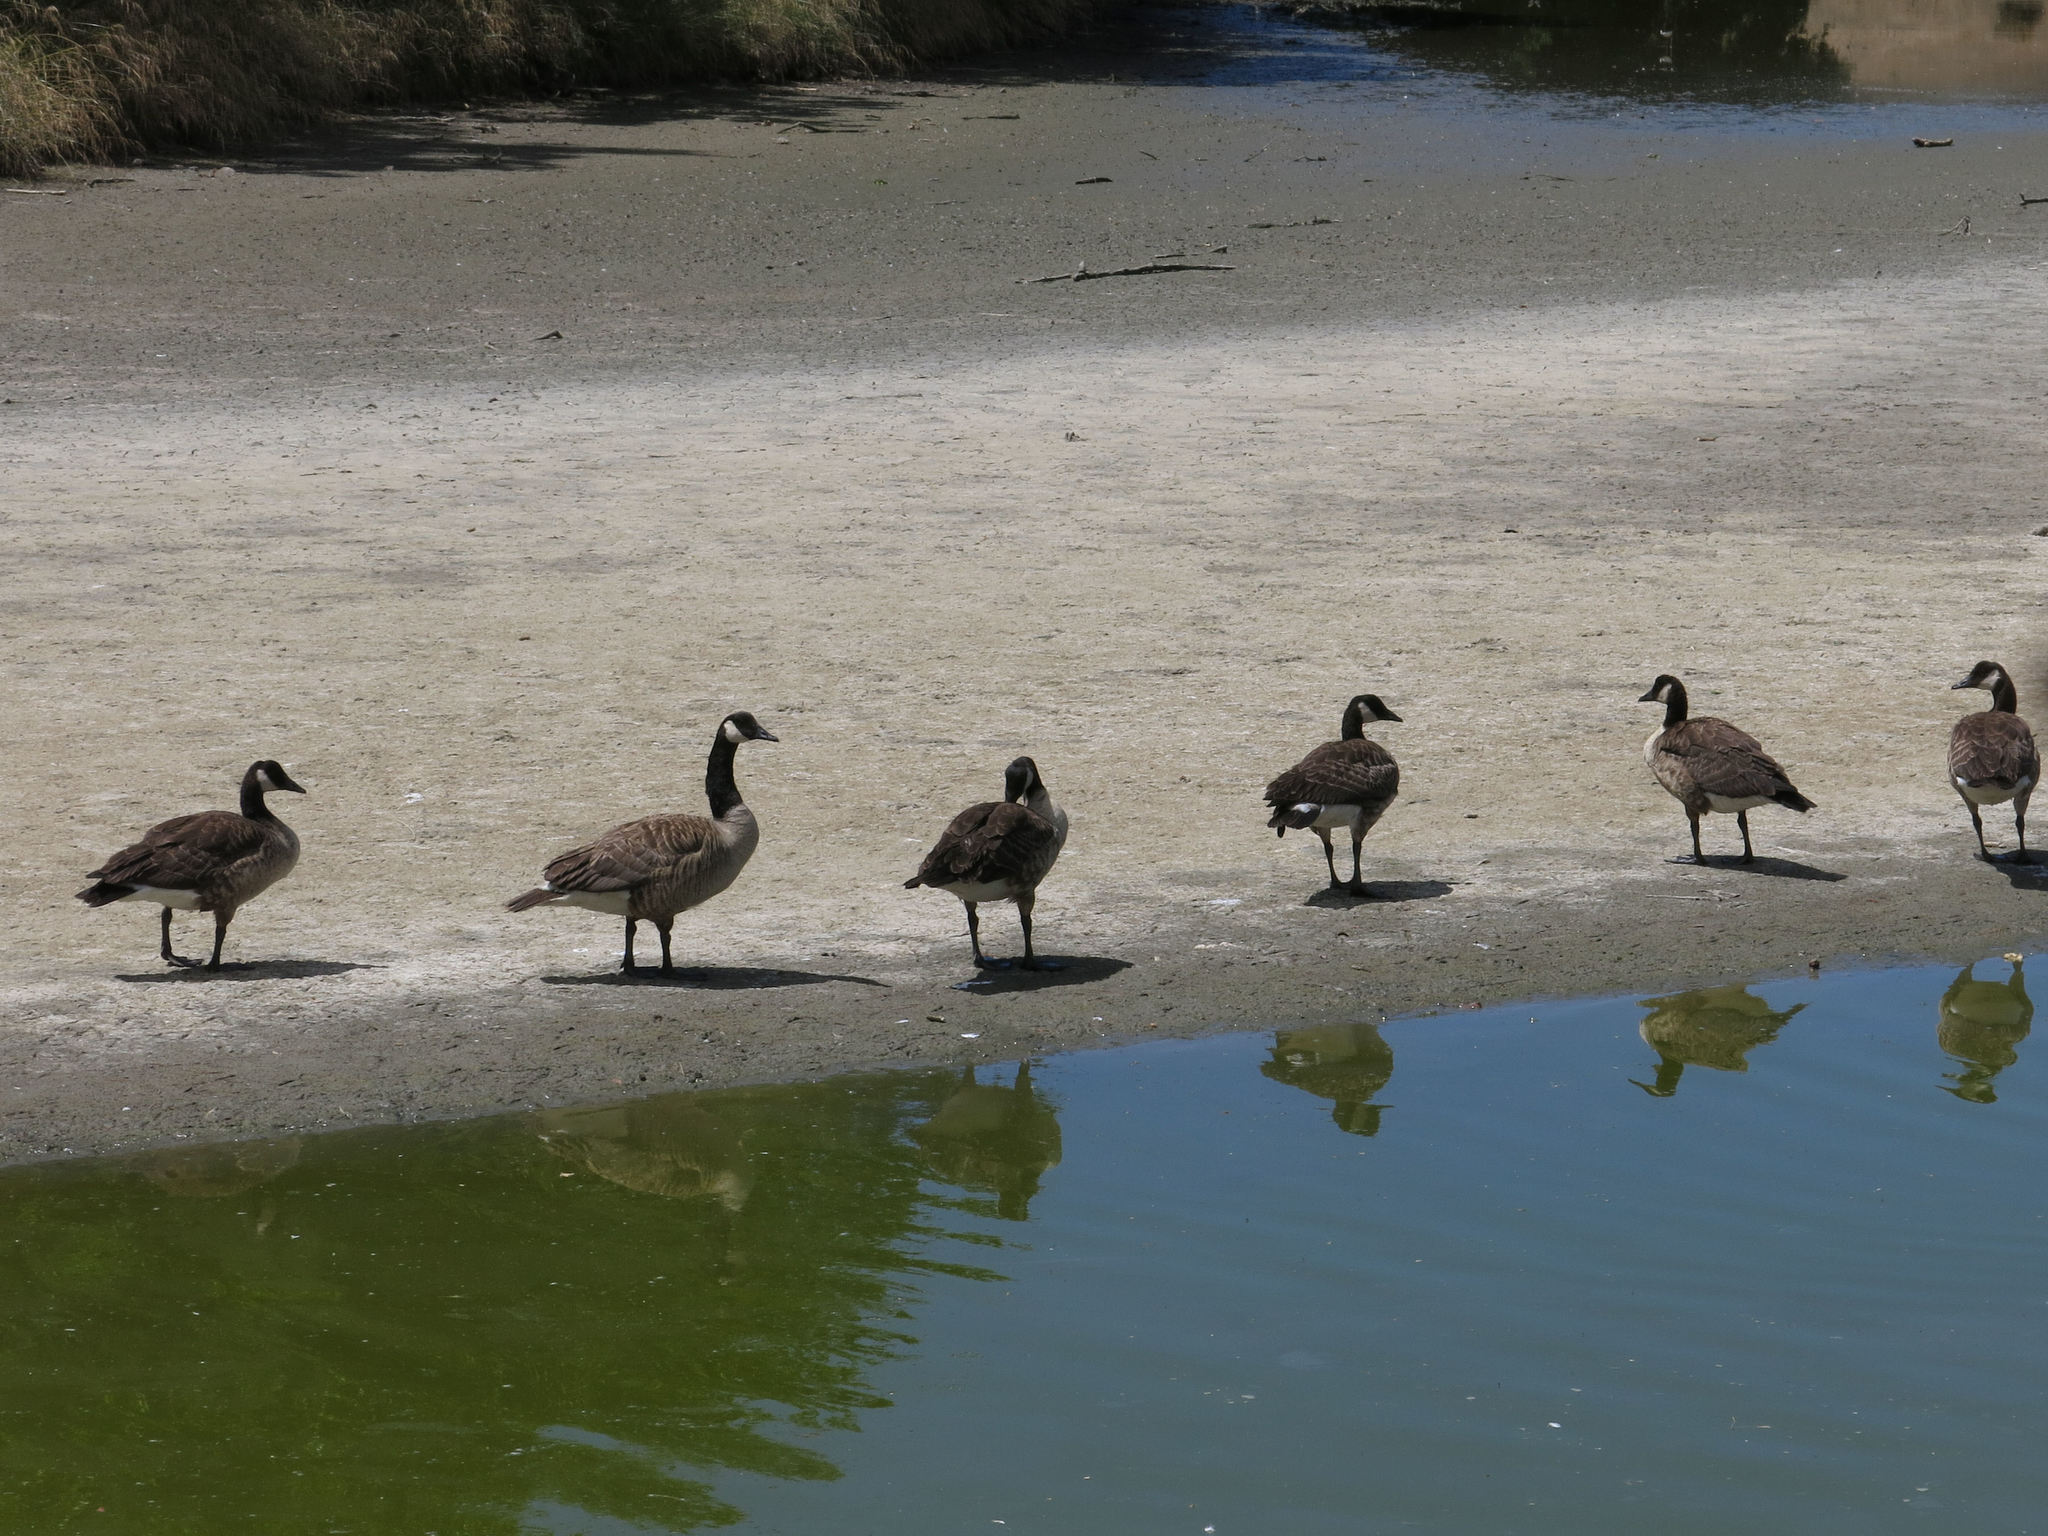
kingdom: Animalia
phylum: Chordata
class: Aves
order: Anseriformes
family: Anatidae
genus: Branta
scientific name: Branta canadensis
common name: Canada goose
